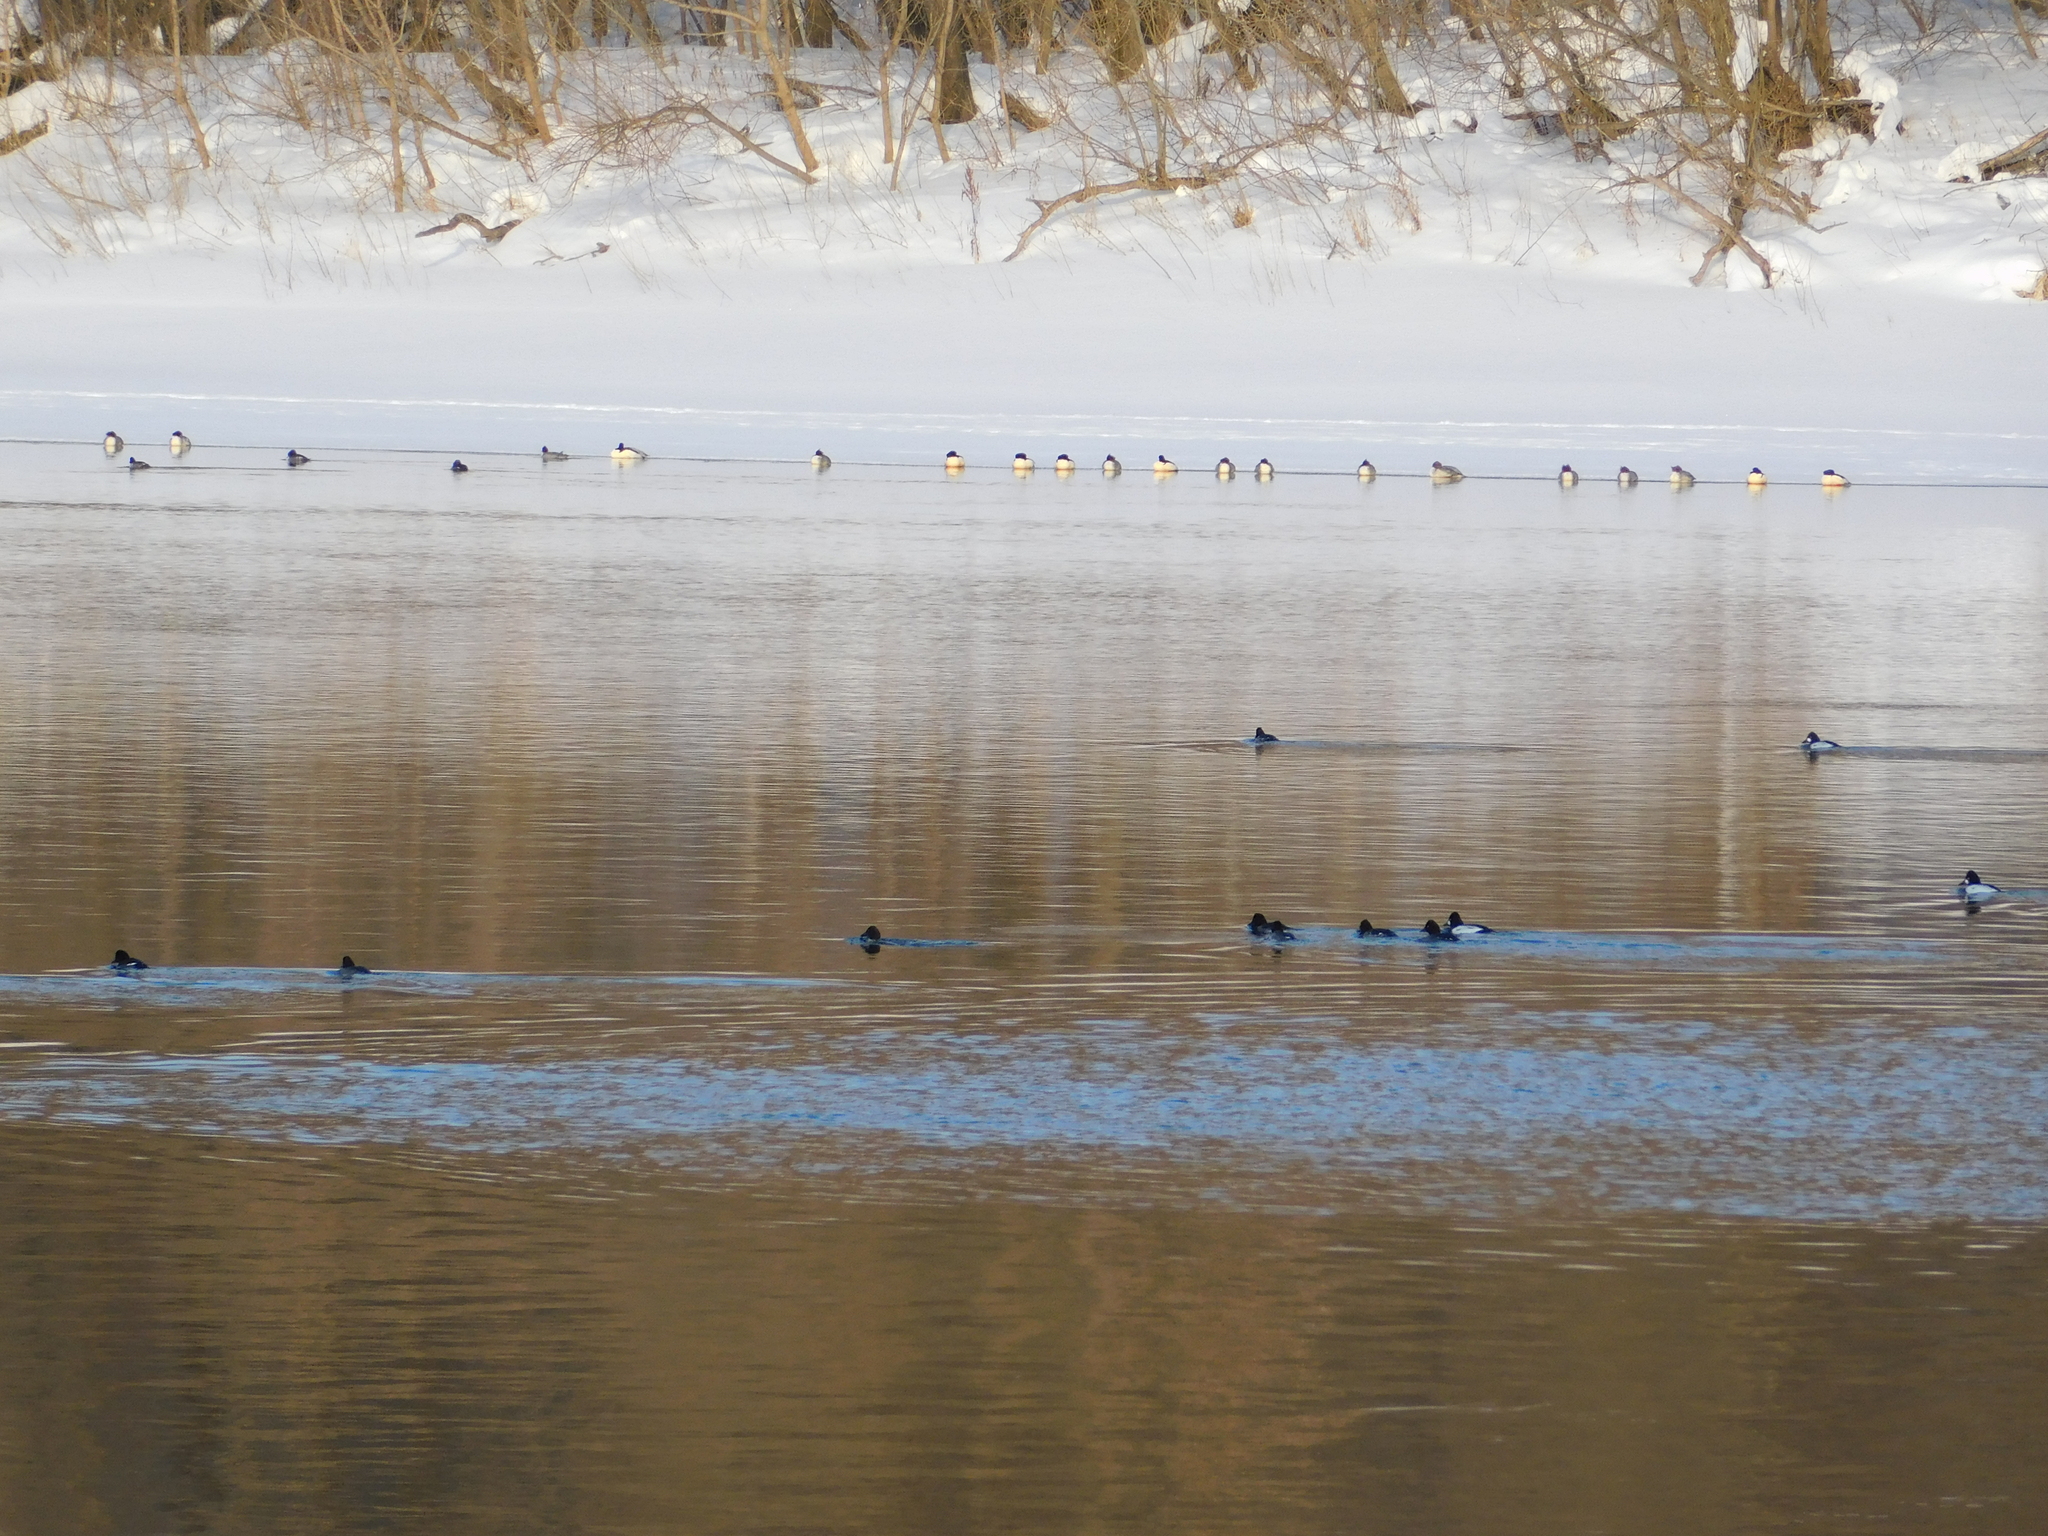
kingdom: Animalia
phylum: Chordata
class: Aves
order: Anseriformes
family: Anatidae
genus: Bucephala
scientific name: Bucephala clangula
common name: Common goldeneye
